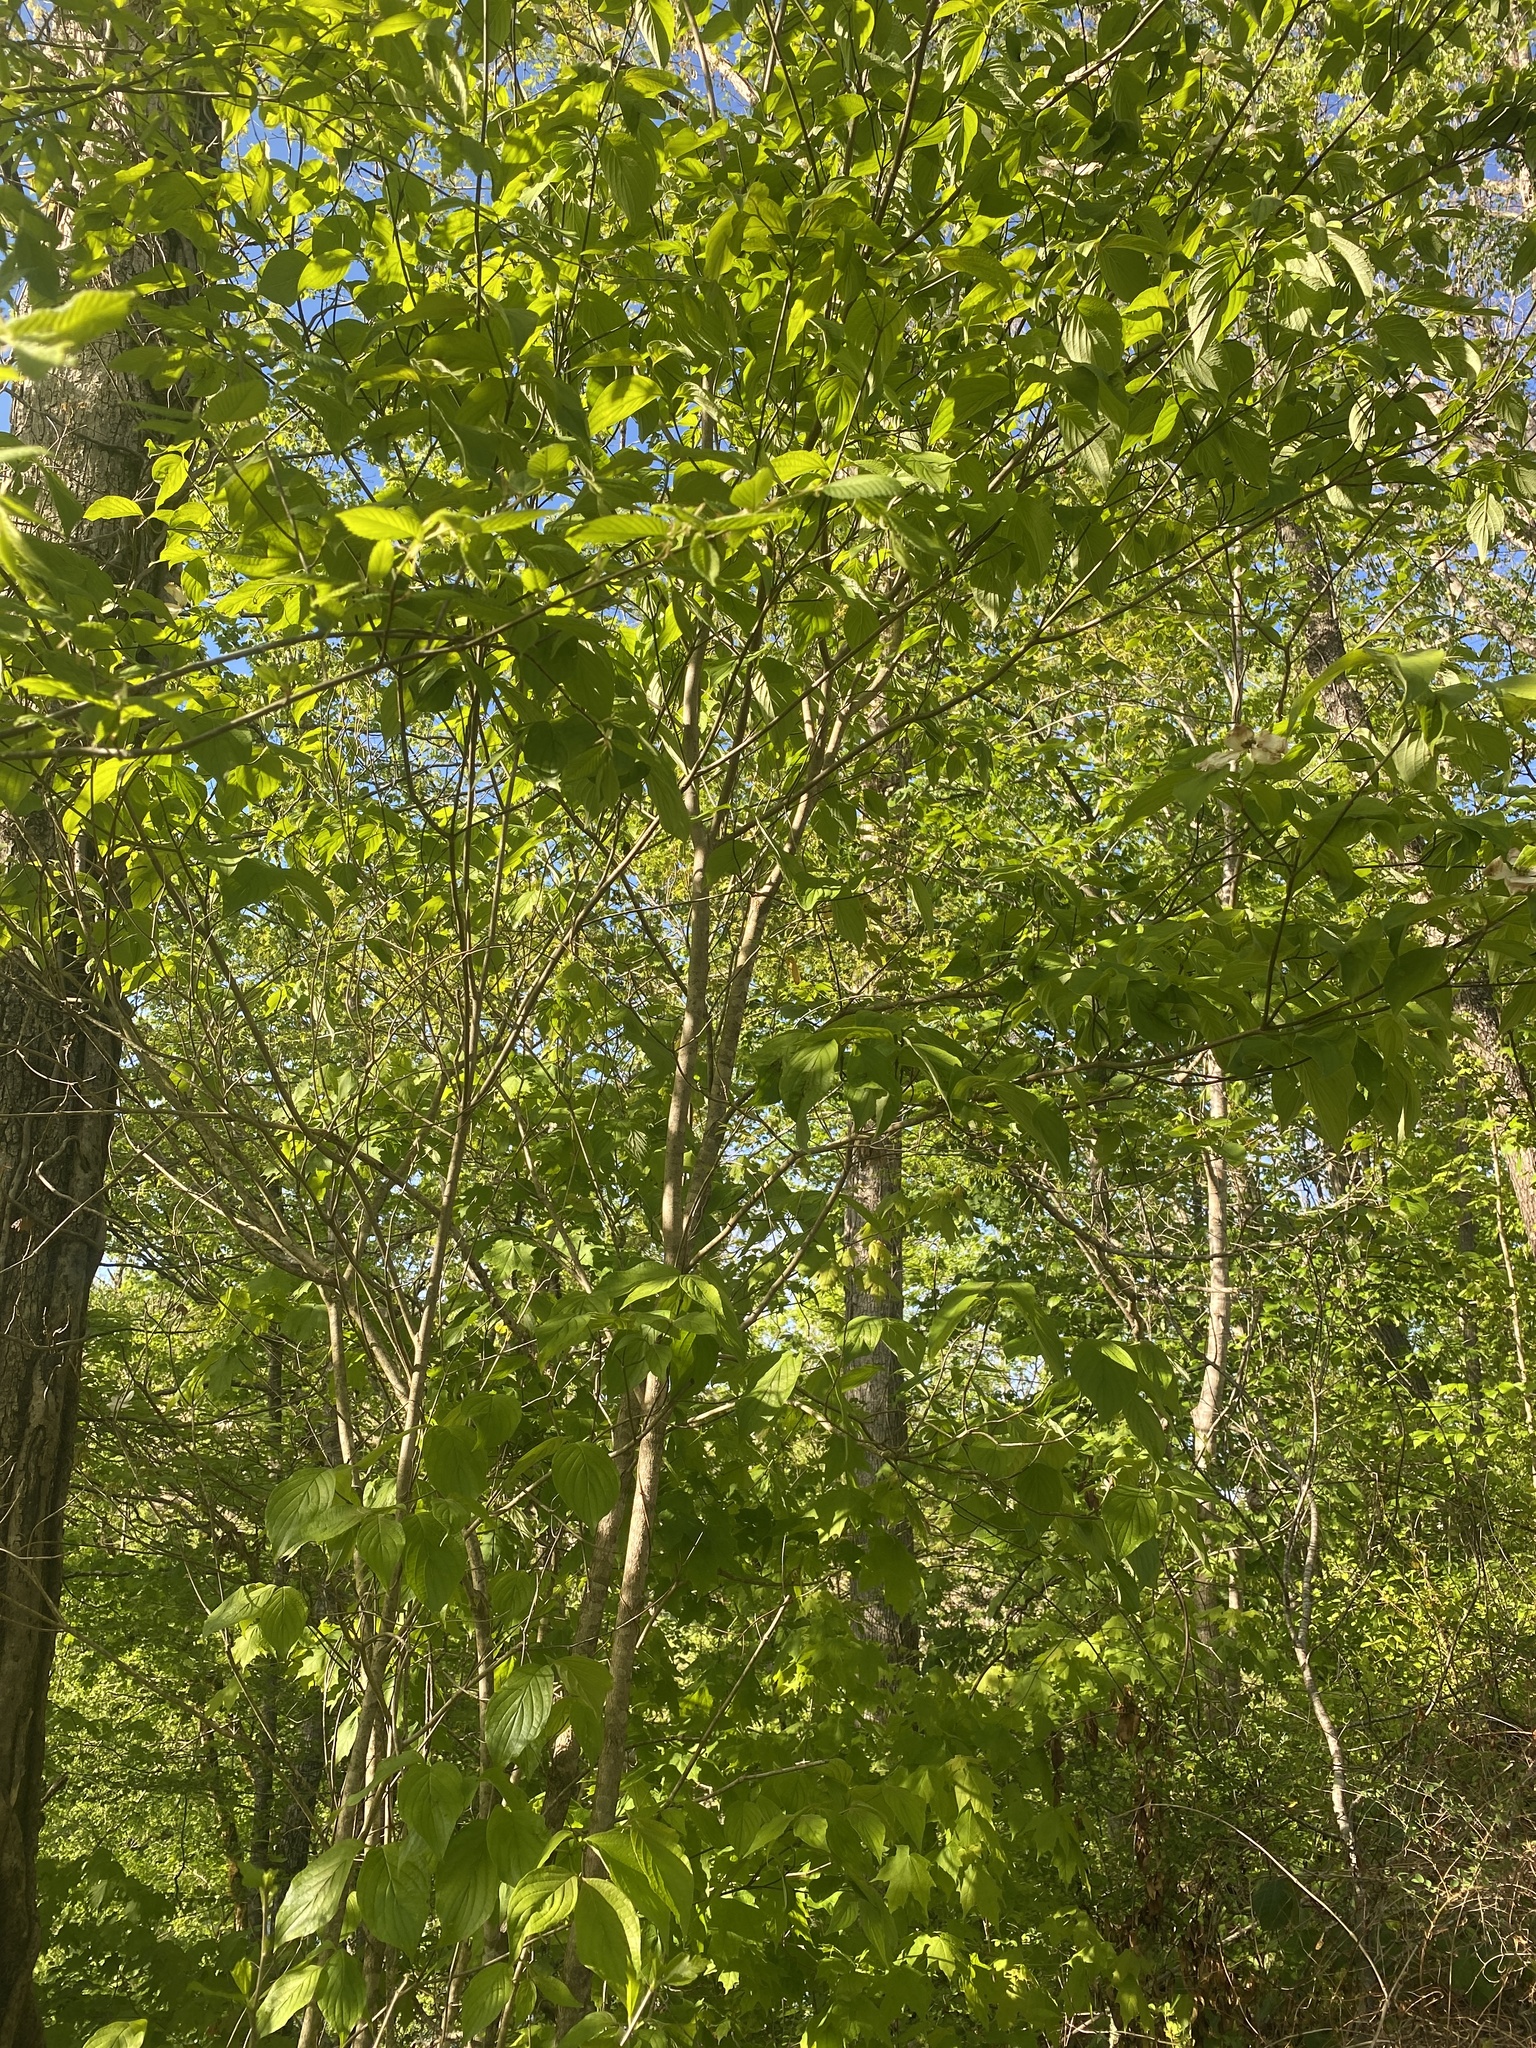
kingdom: Plantae
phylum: Tracheophyta
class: Magnoliopsida
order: Cornales
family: Cornaceae
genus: Cornus
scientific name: Cornus florida
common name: Flowering dogwood
